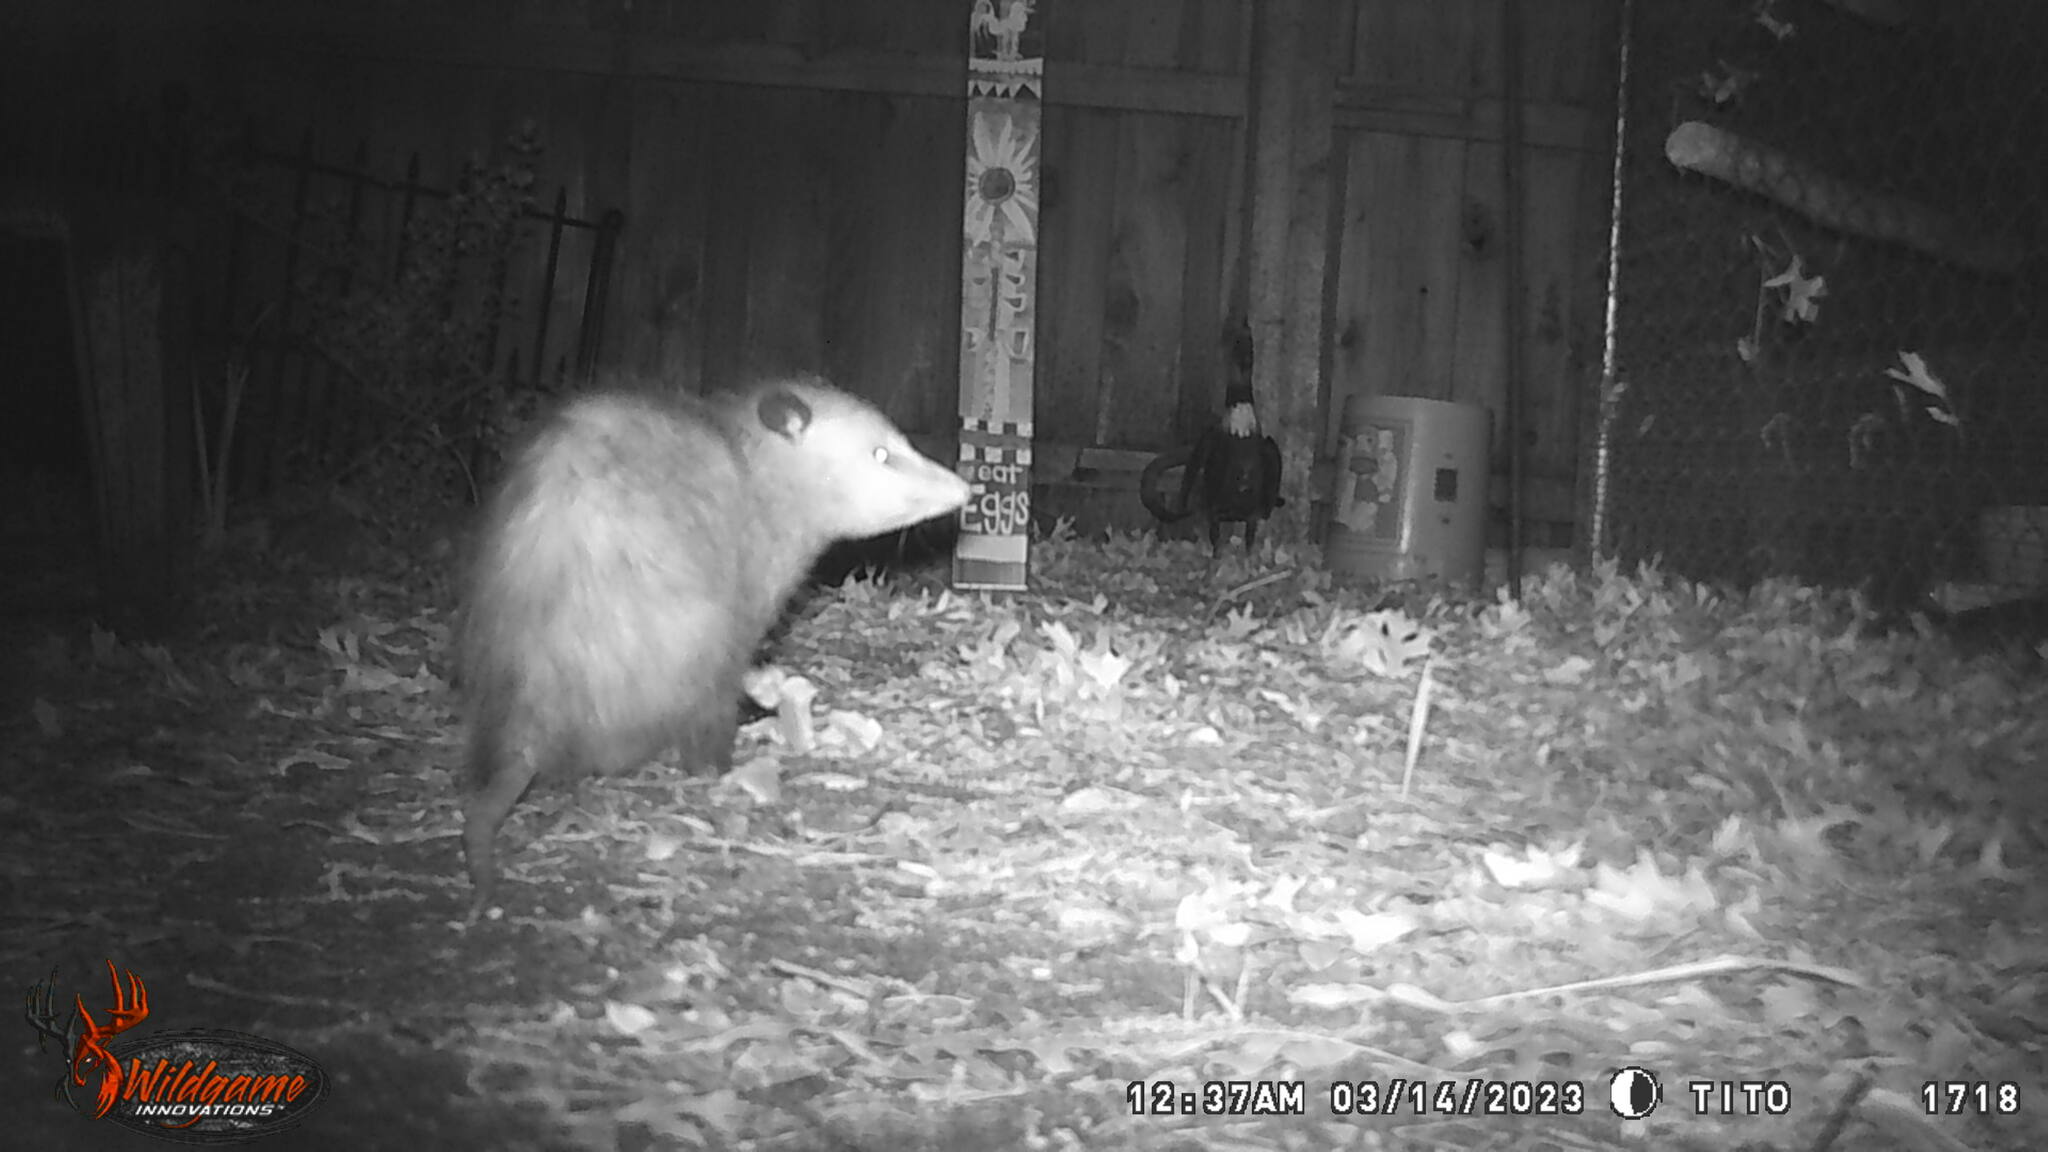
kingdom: Animalia
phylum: Chordata
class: Mammalia
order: Didelphimorphia
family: Didelphidae
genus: Didelphis
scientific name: Didelphis virginiana
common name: Virginia opossum
